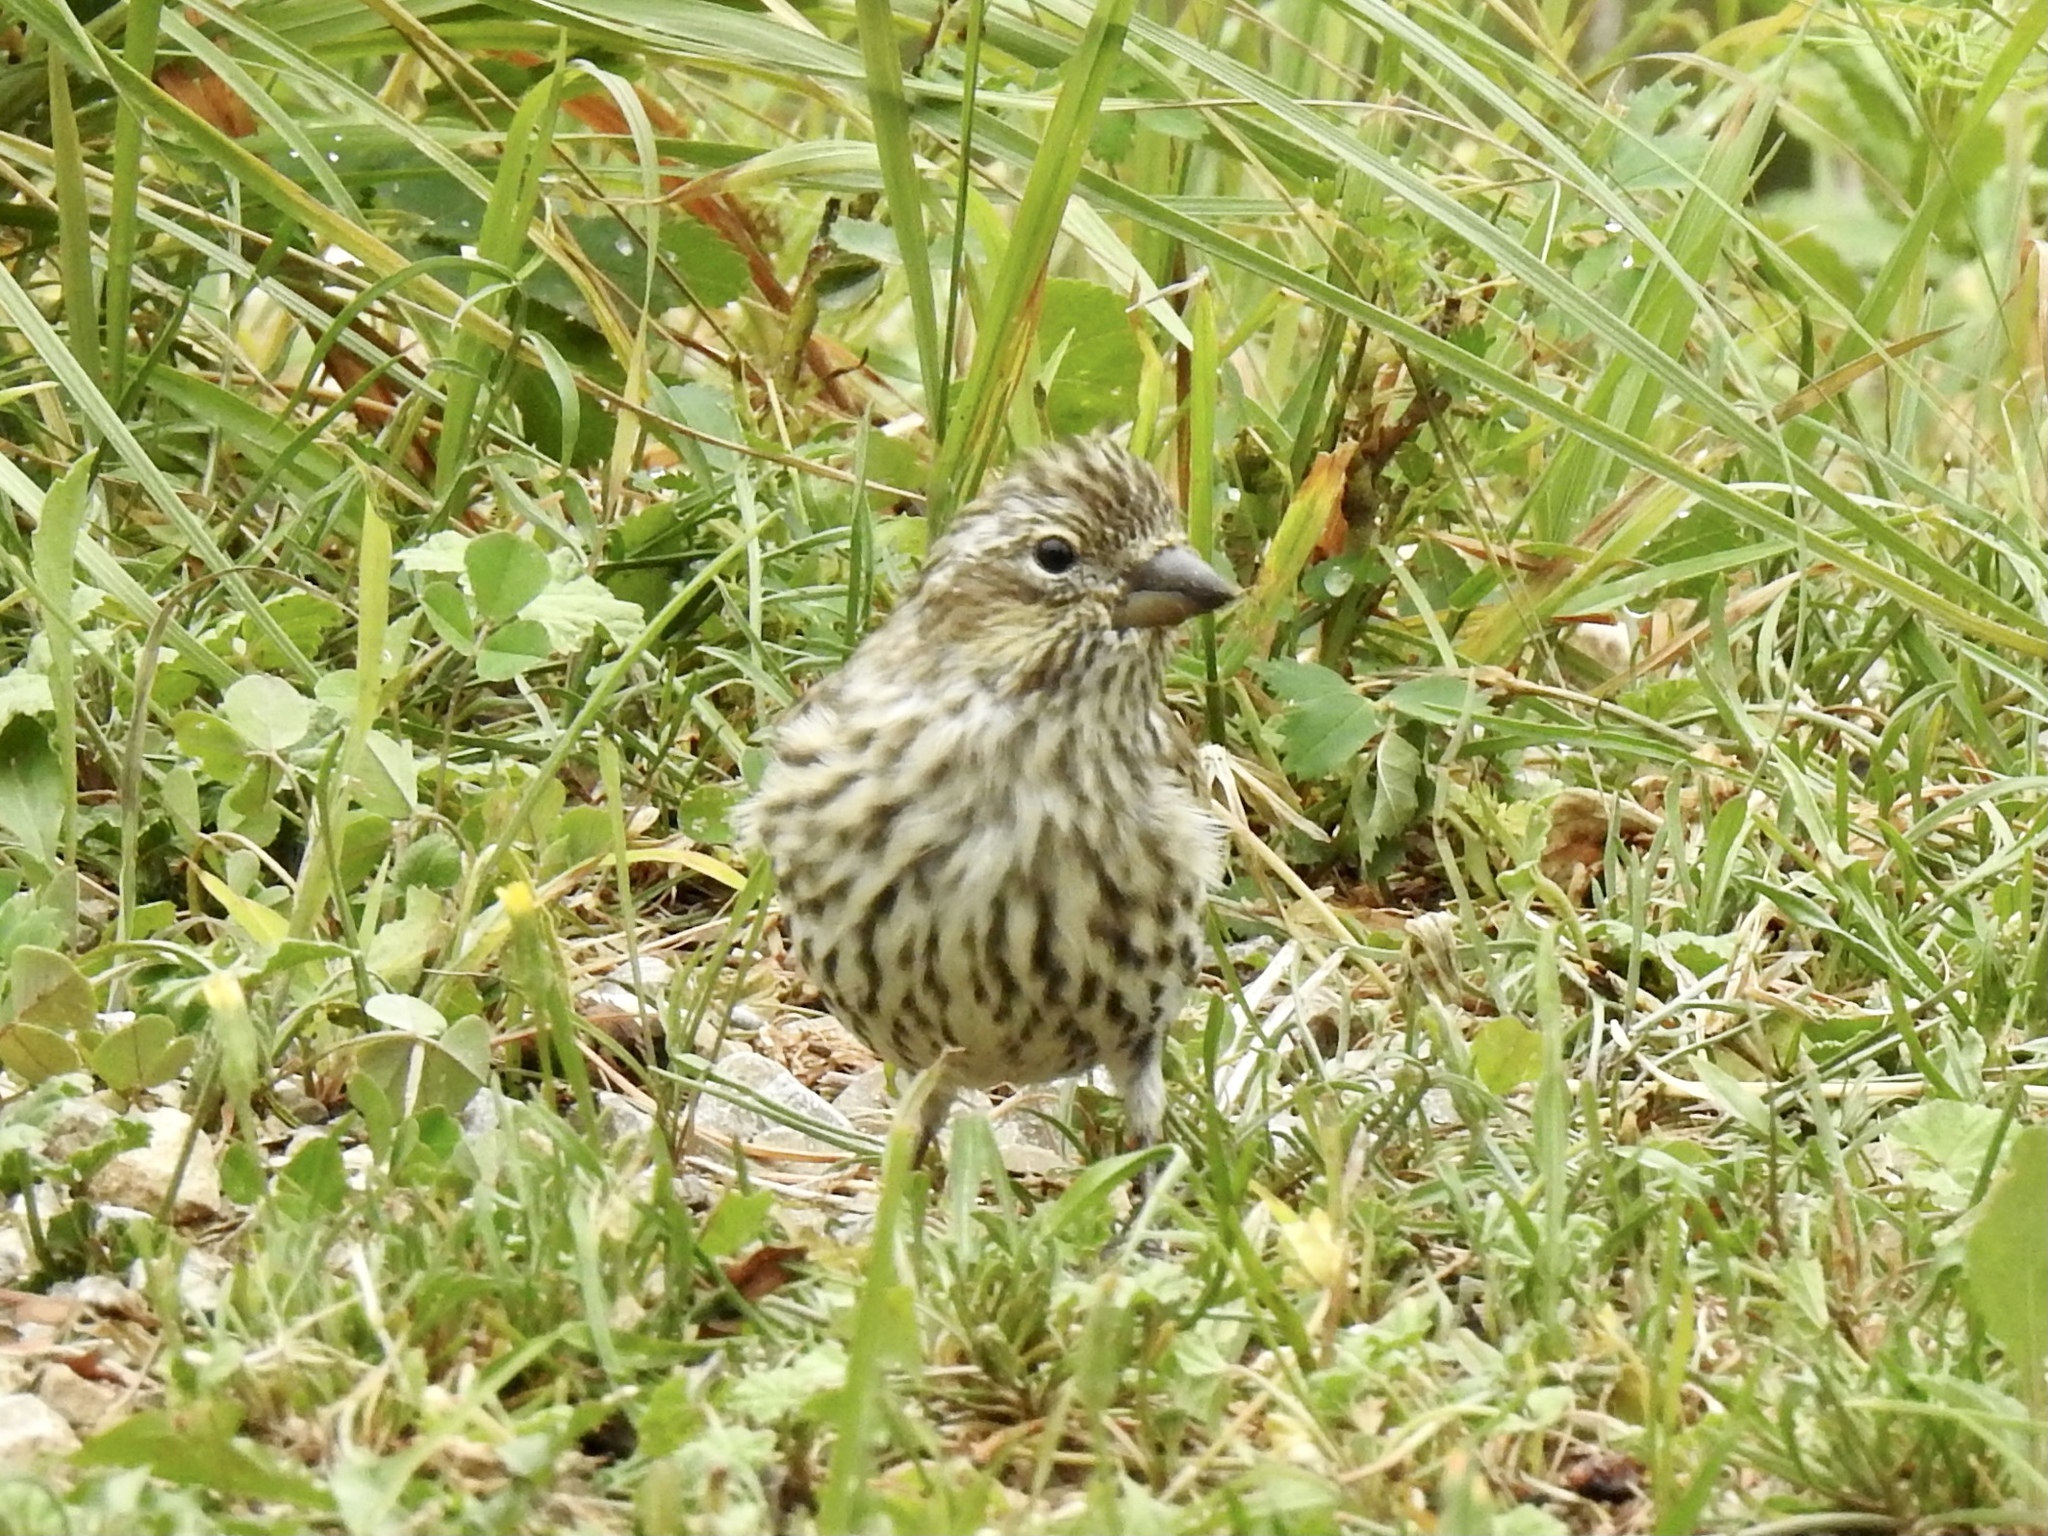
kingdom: Animalia
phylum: Chordata
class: Aves
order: Passeriformes
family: Fringillidae
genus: Haemorhous
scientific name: Haemorhous cassinii
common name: Cassin's finch
